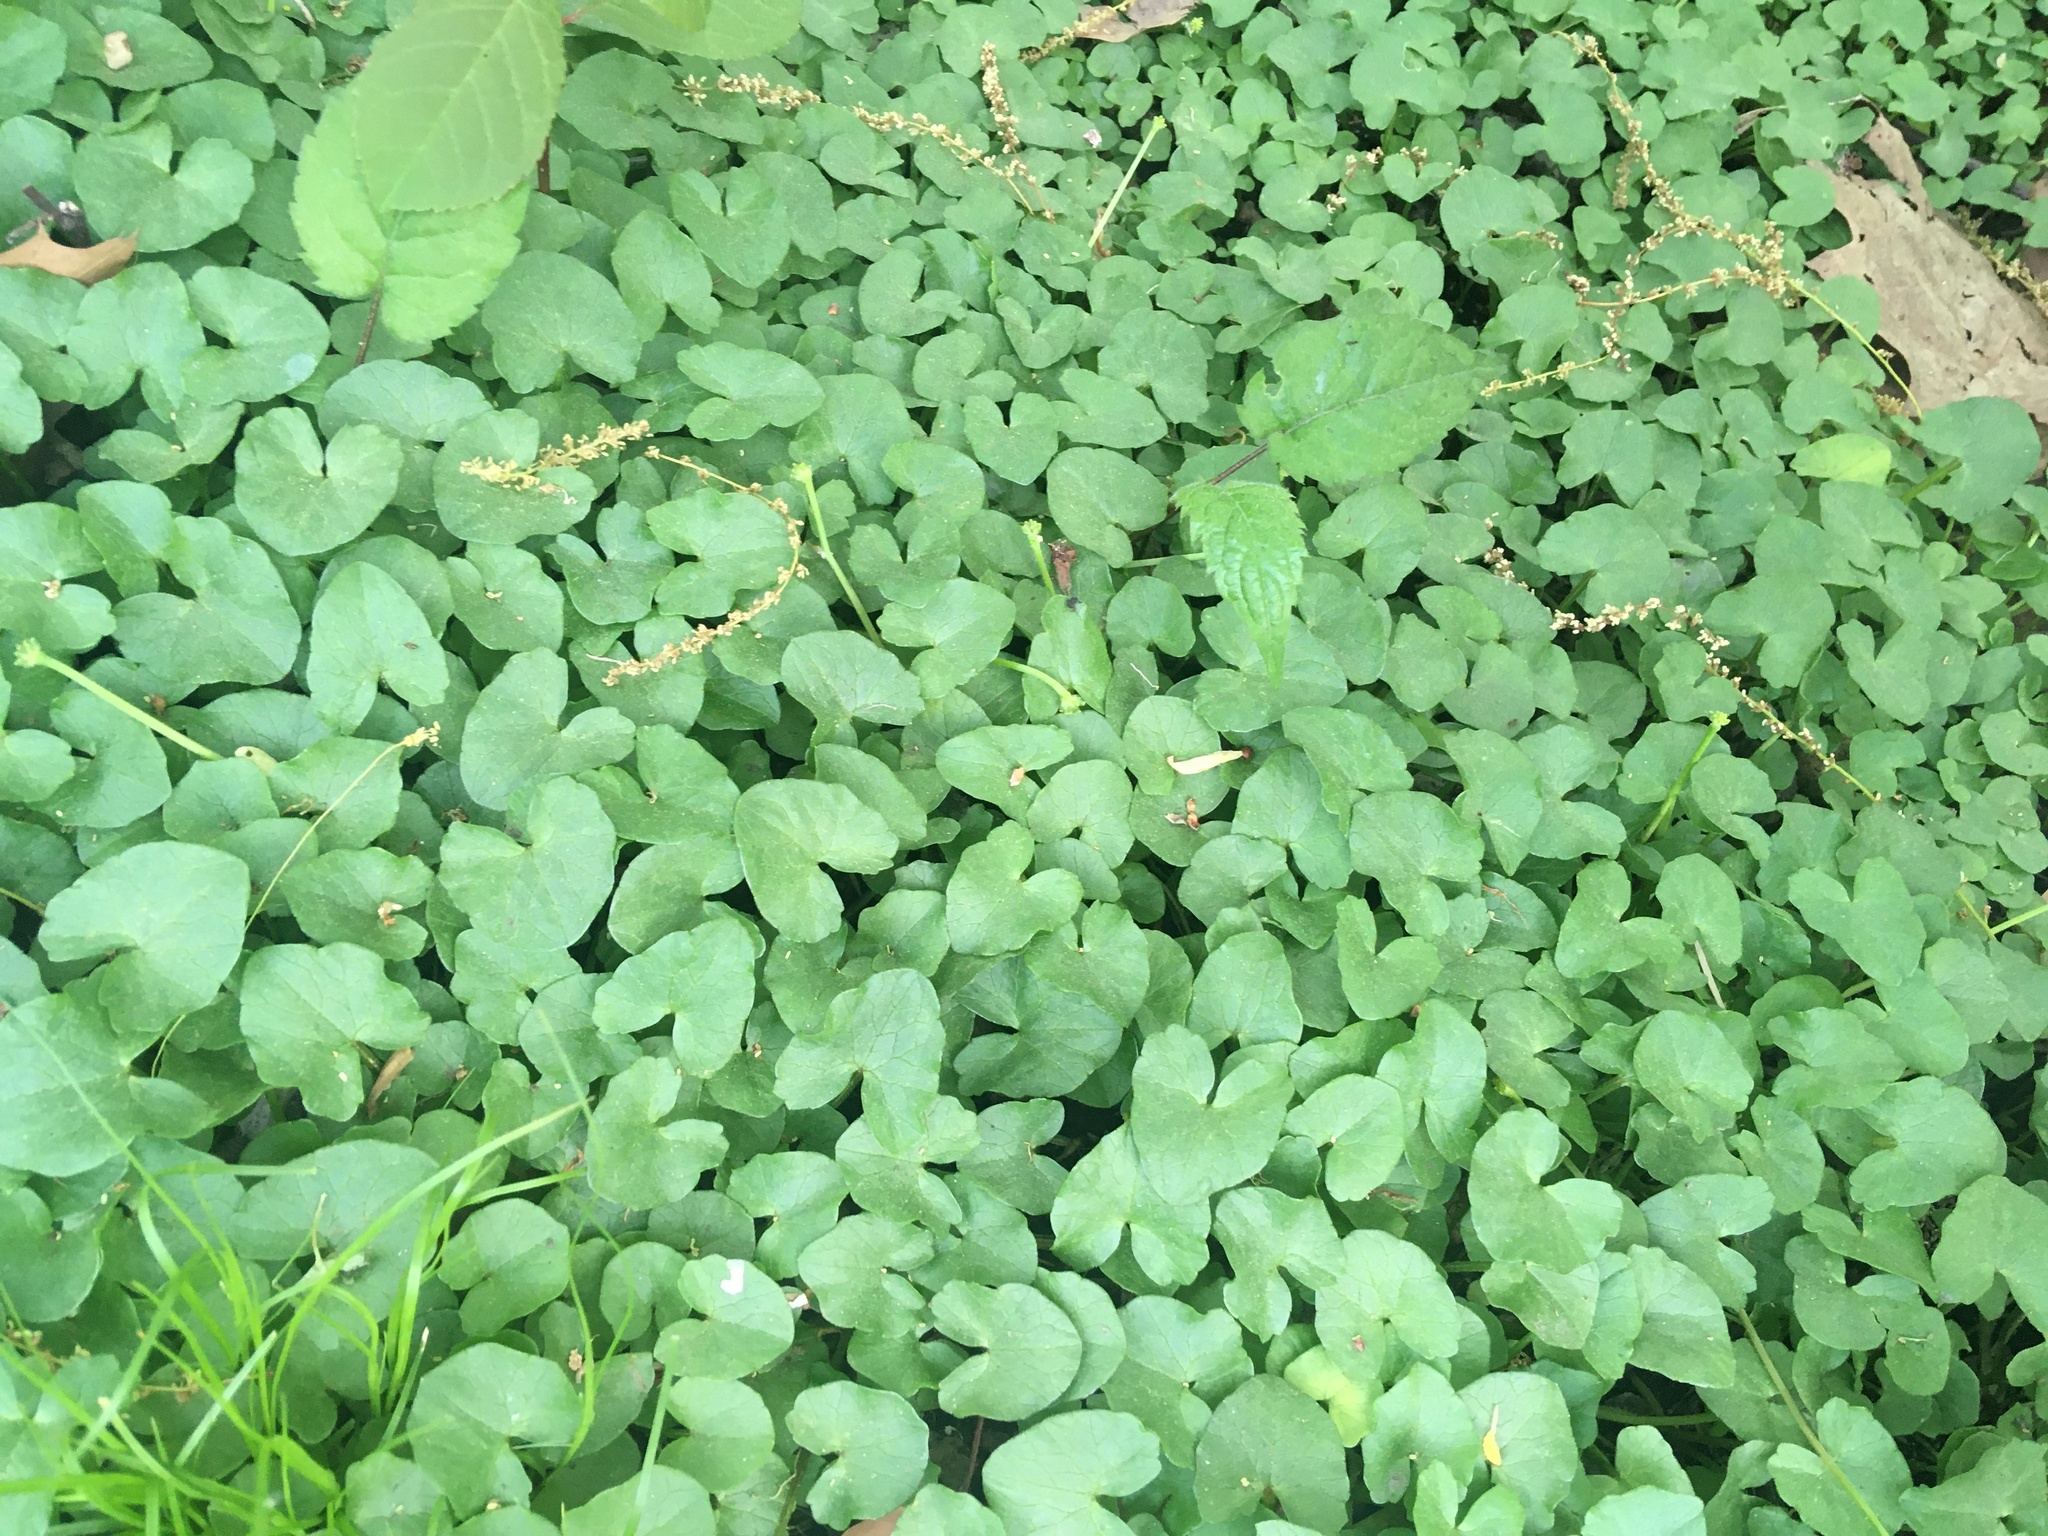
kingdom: Plantae
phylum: Tracheophyta
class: Magnoliopsida
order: Ranunculales
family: Ranunculaceae
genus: Ficaria
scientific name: Ficaria verna
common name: Lesser celandine
